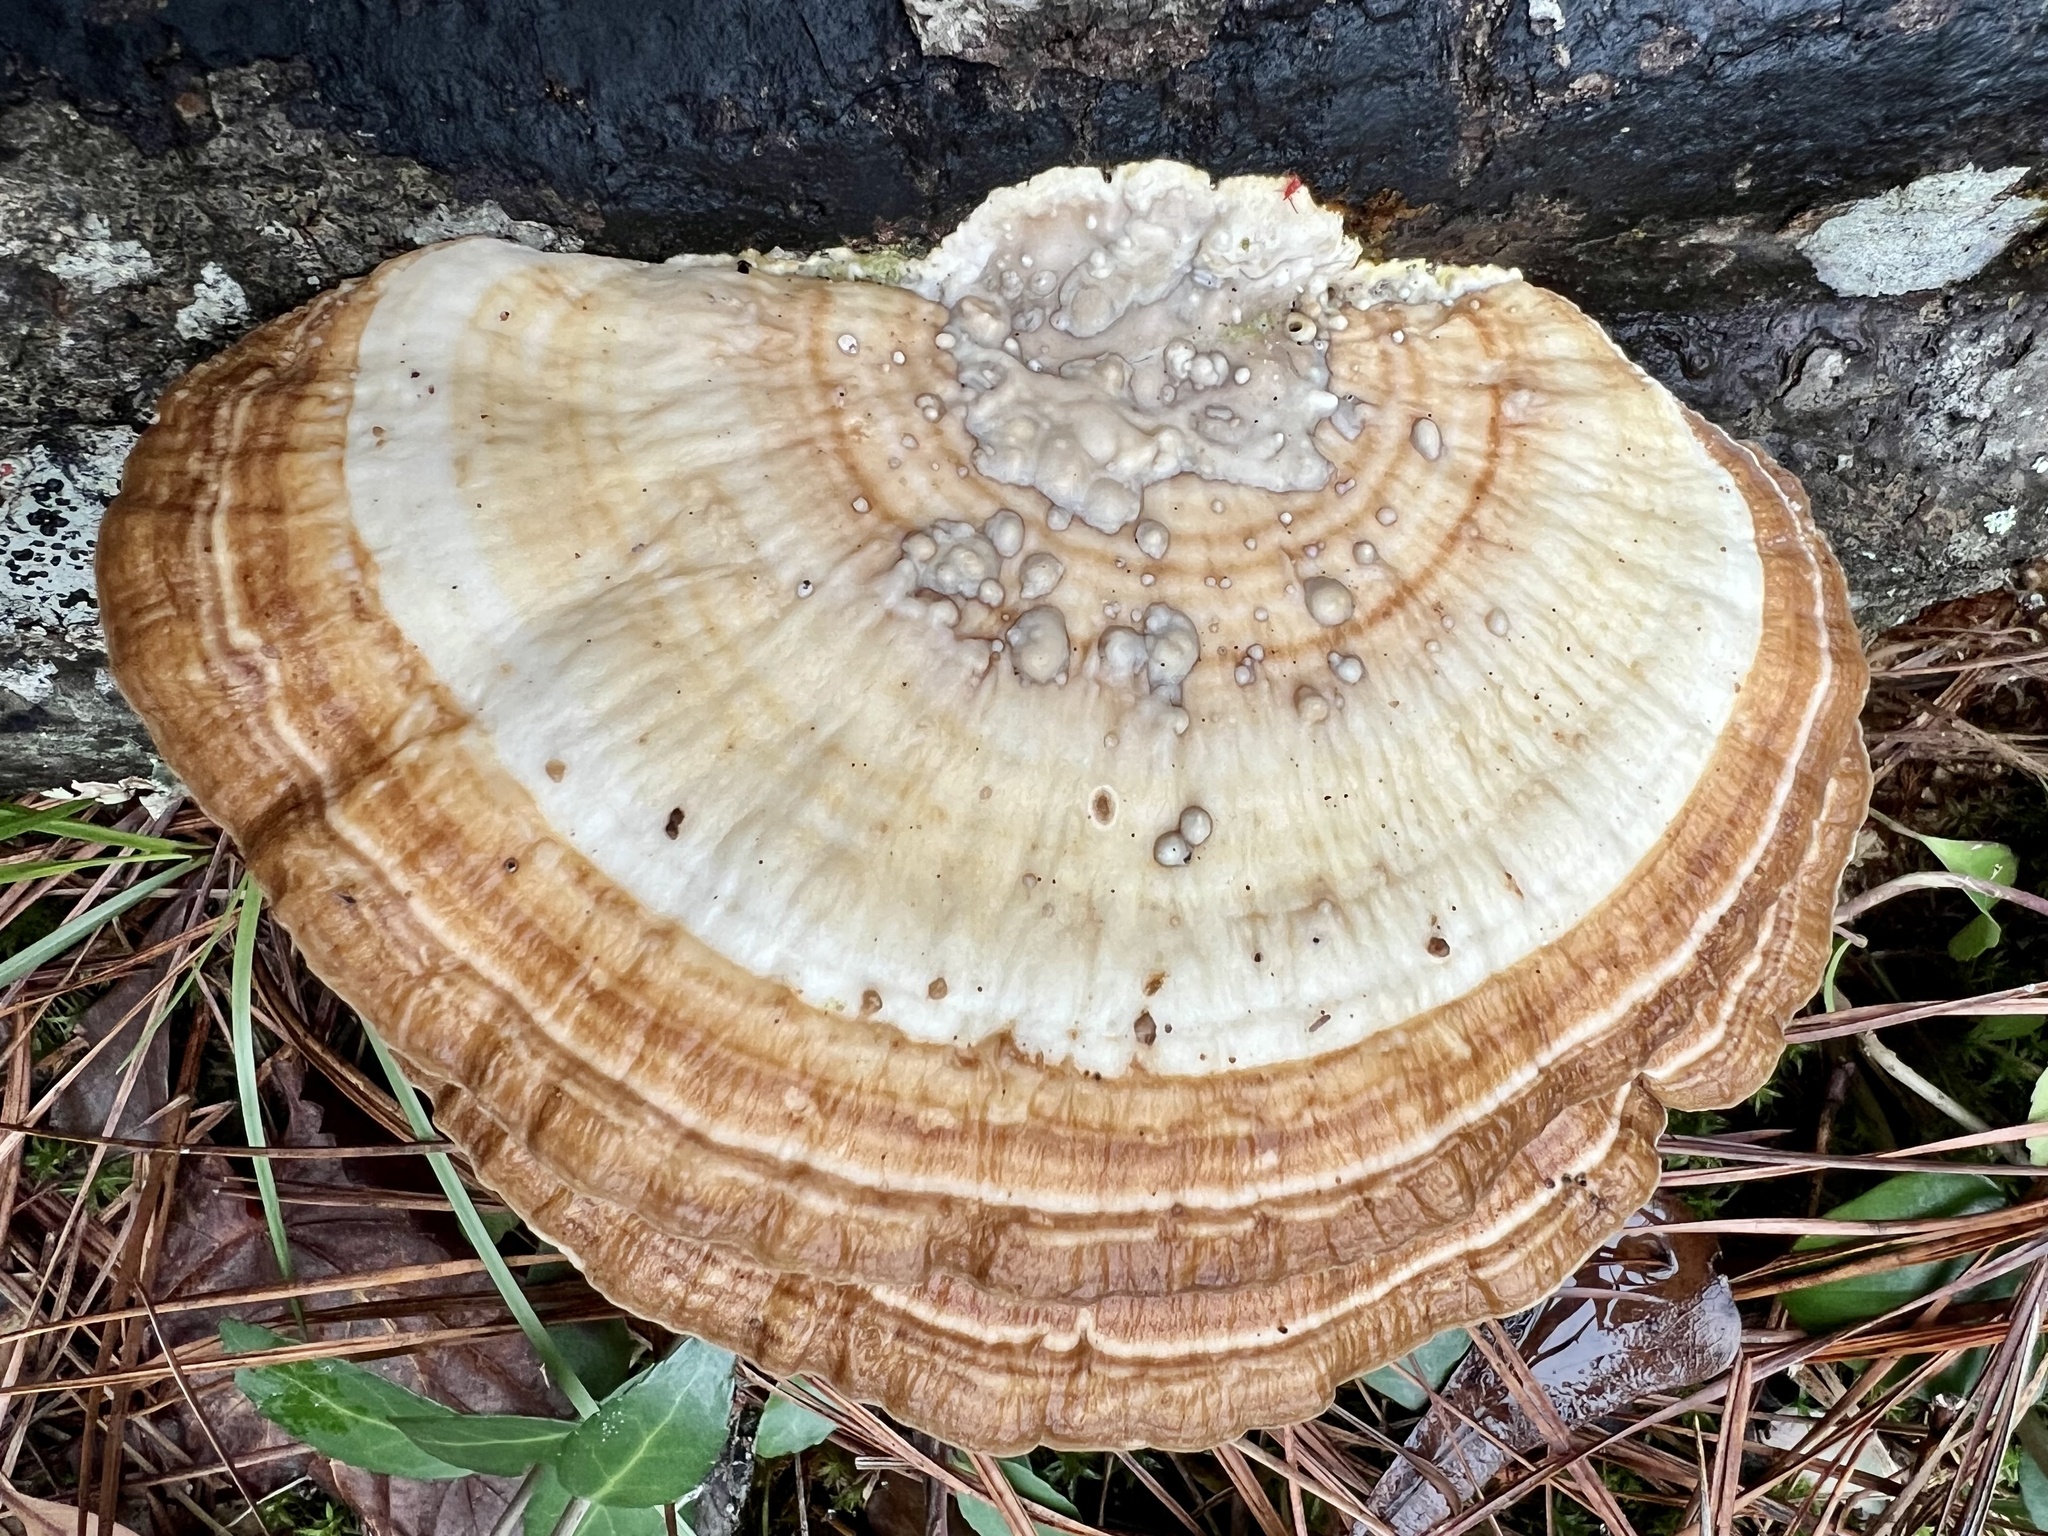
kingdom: Fungi
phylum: Basidiomycota
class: Agaricomycetes
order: Polyporales
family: Polyporaceae
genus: Trametes
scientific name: Trametes lactinea
